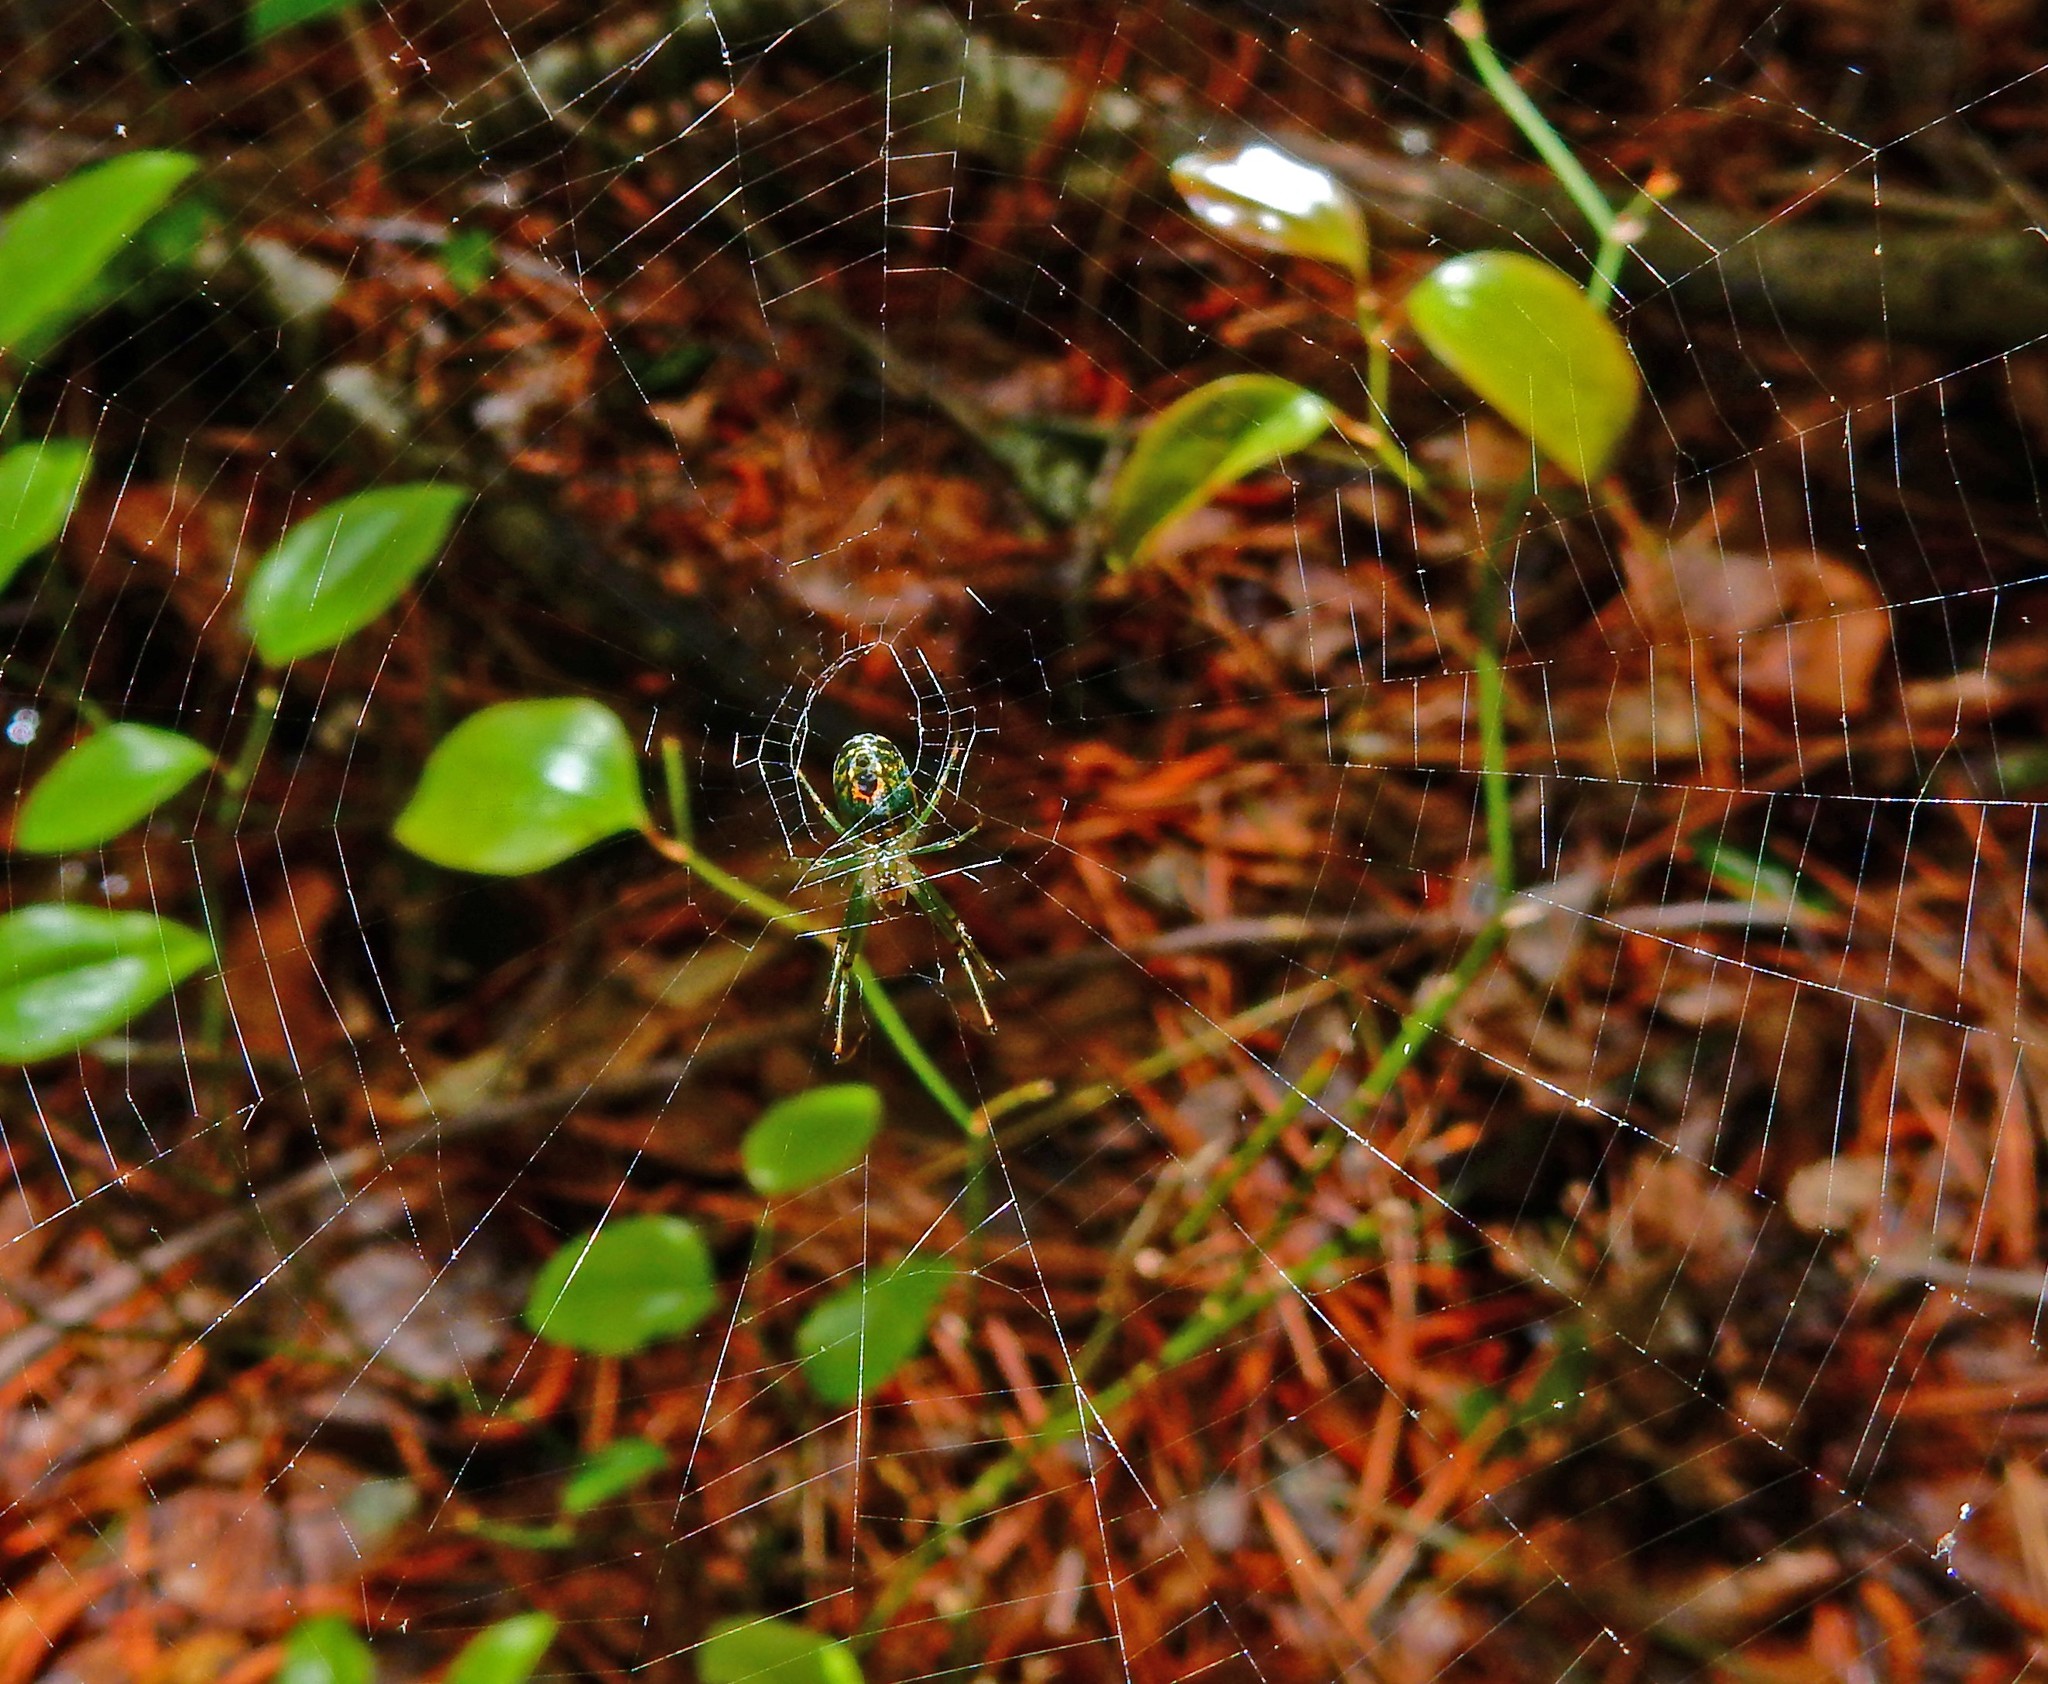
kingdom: Animalia
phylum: Arthropoda
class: Arachnida
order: Araneae
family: Tetragnathidae
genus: Leucauge
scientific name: Leucauge venusta
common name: Longjawed orb weavers
